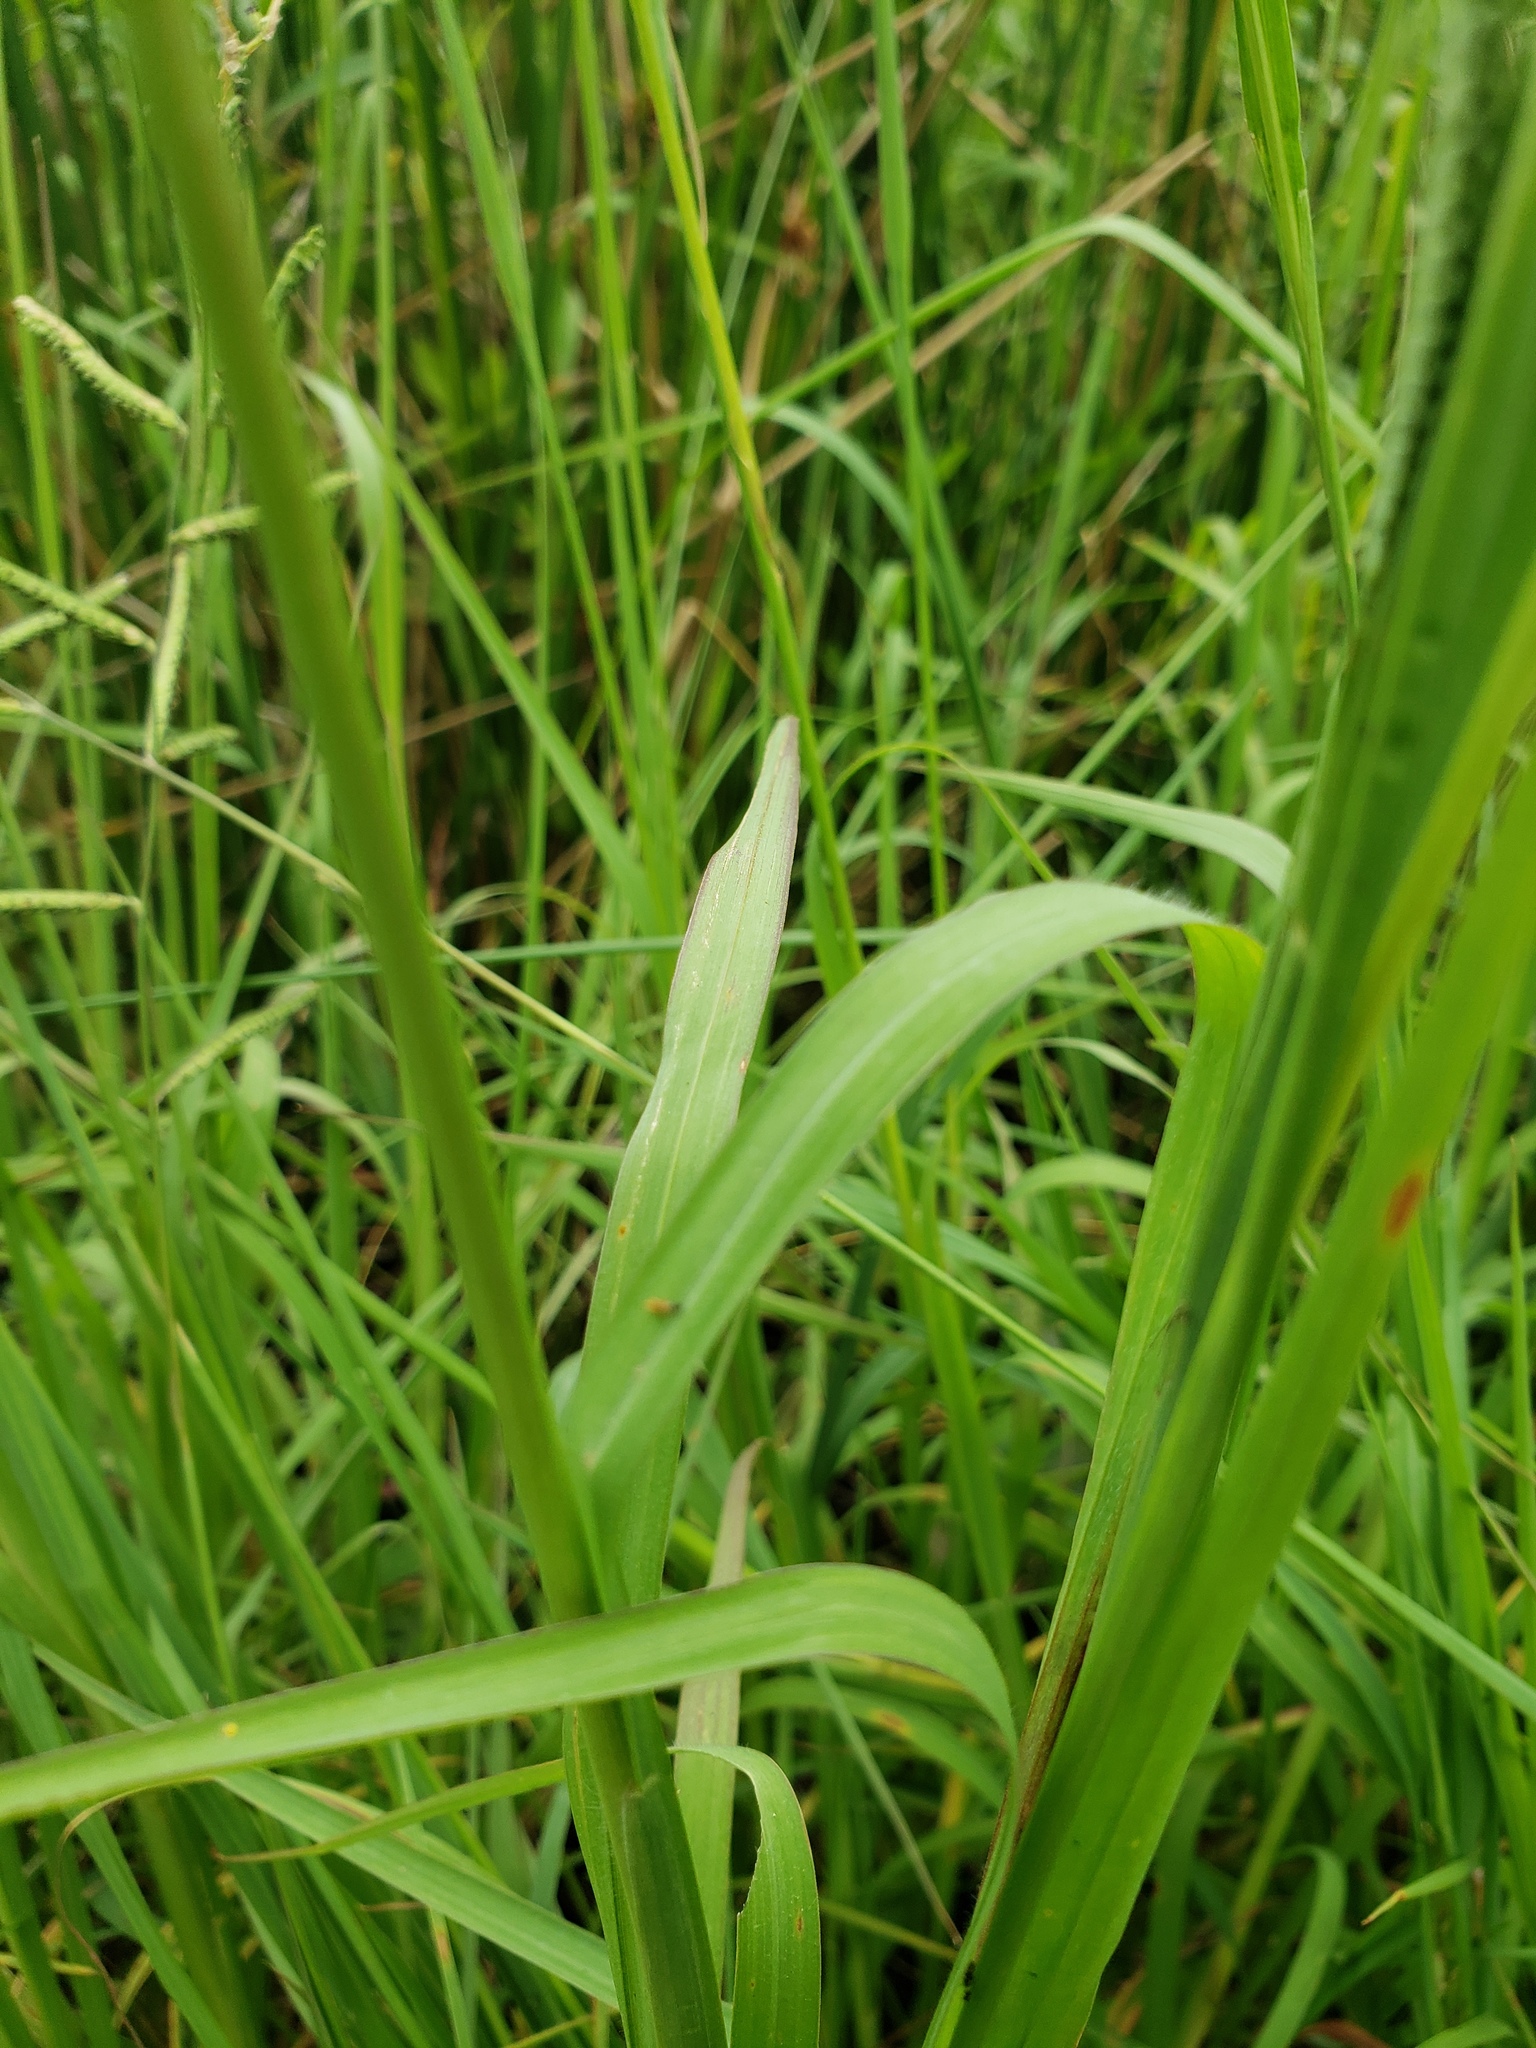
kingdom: Plantae
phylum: Tracheophyta
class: Liliopsida
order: Poales
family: Poaceae
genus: Paspalum
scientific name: Paspalum denticulatum
